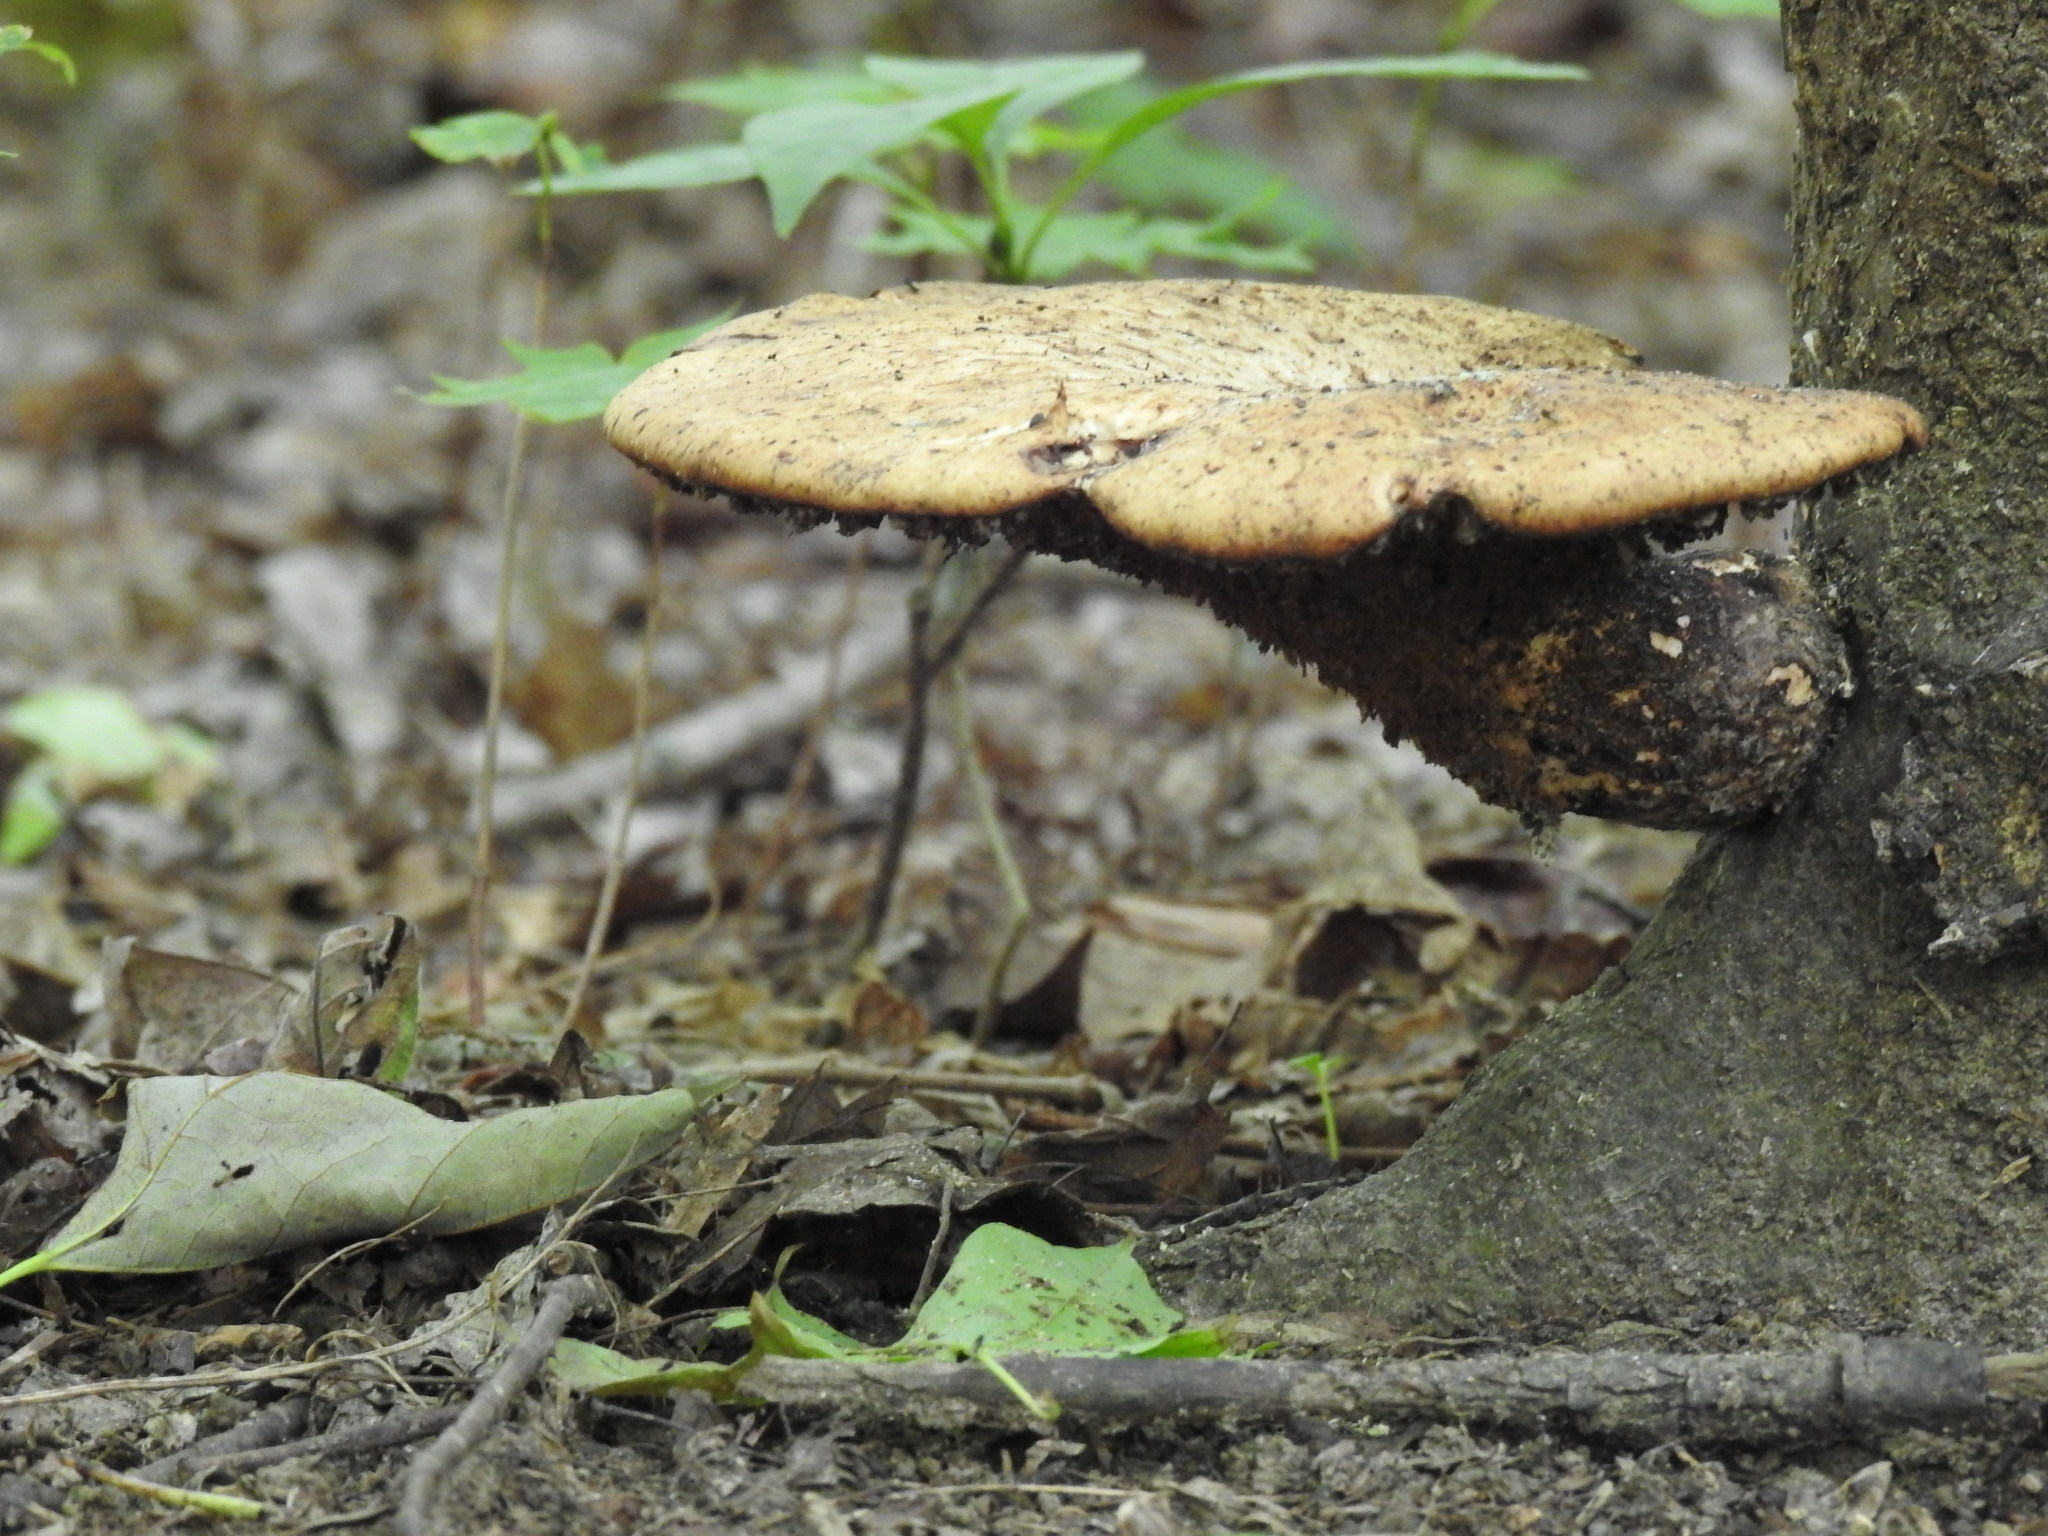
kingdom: Fungi
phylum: Basidiomycota
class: Agaricomycetes
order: Polyporales
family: Polyporaceae
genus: Cerioporus
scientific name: Cerioporus squamosus
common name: Dryad's saddle
